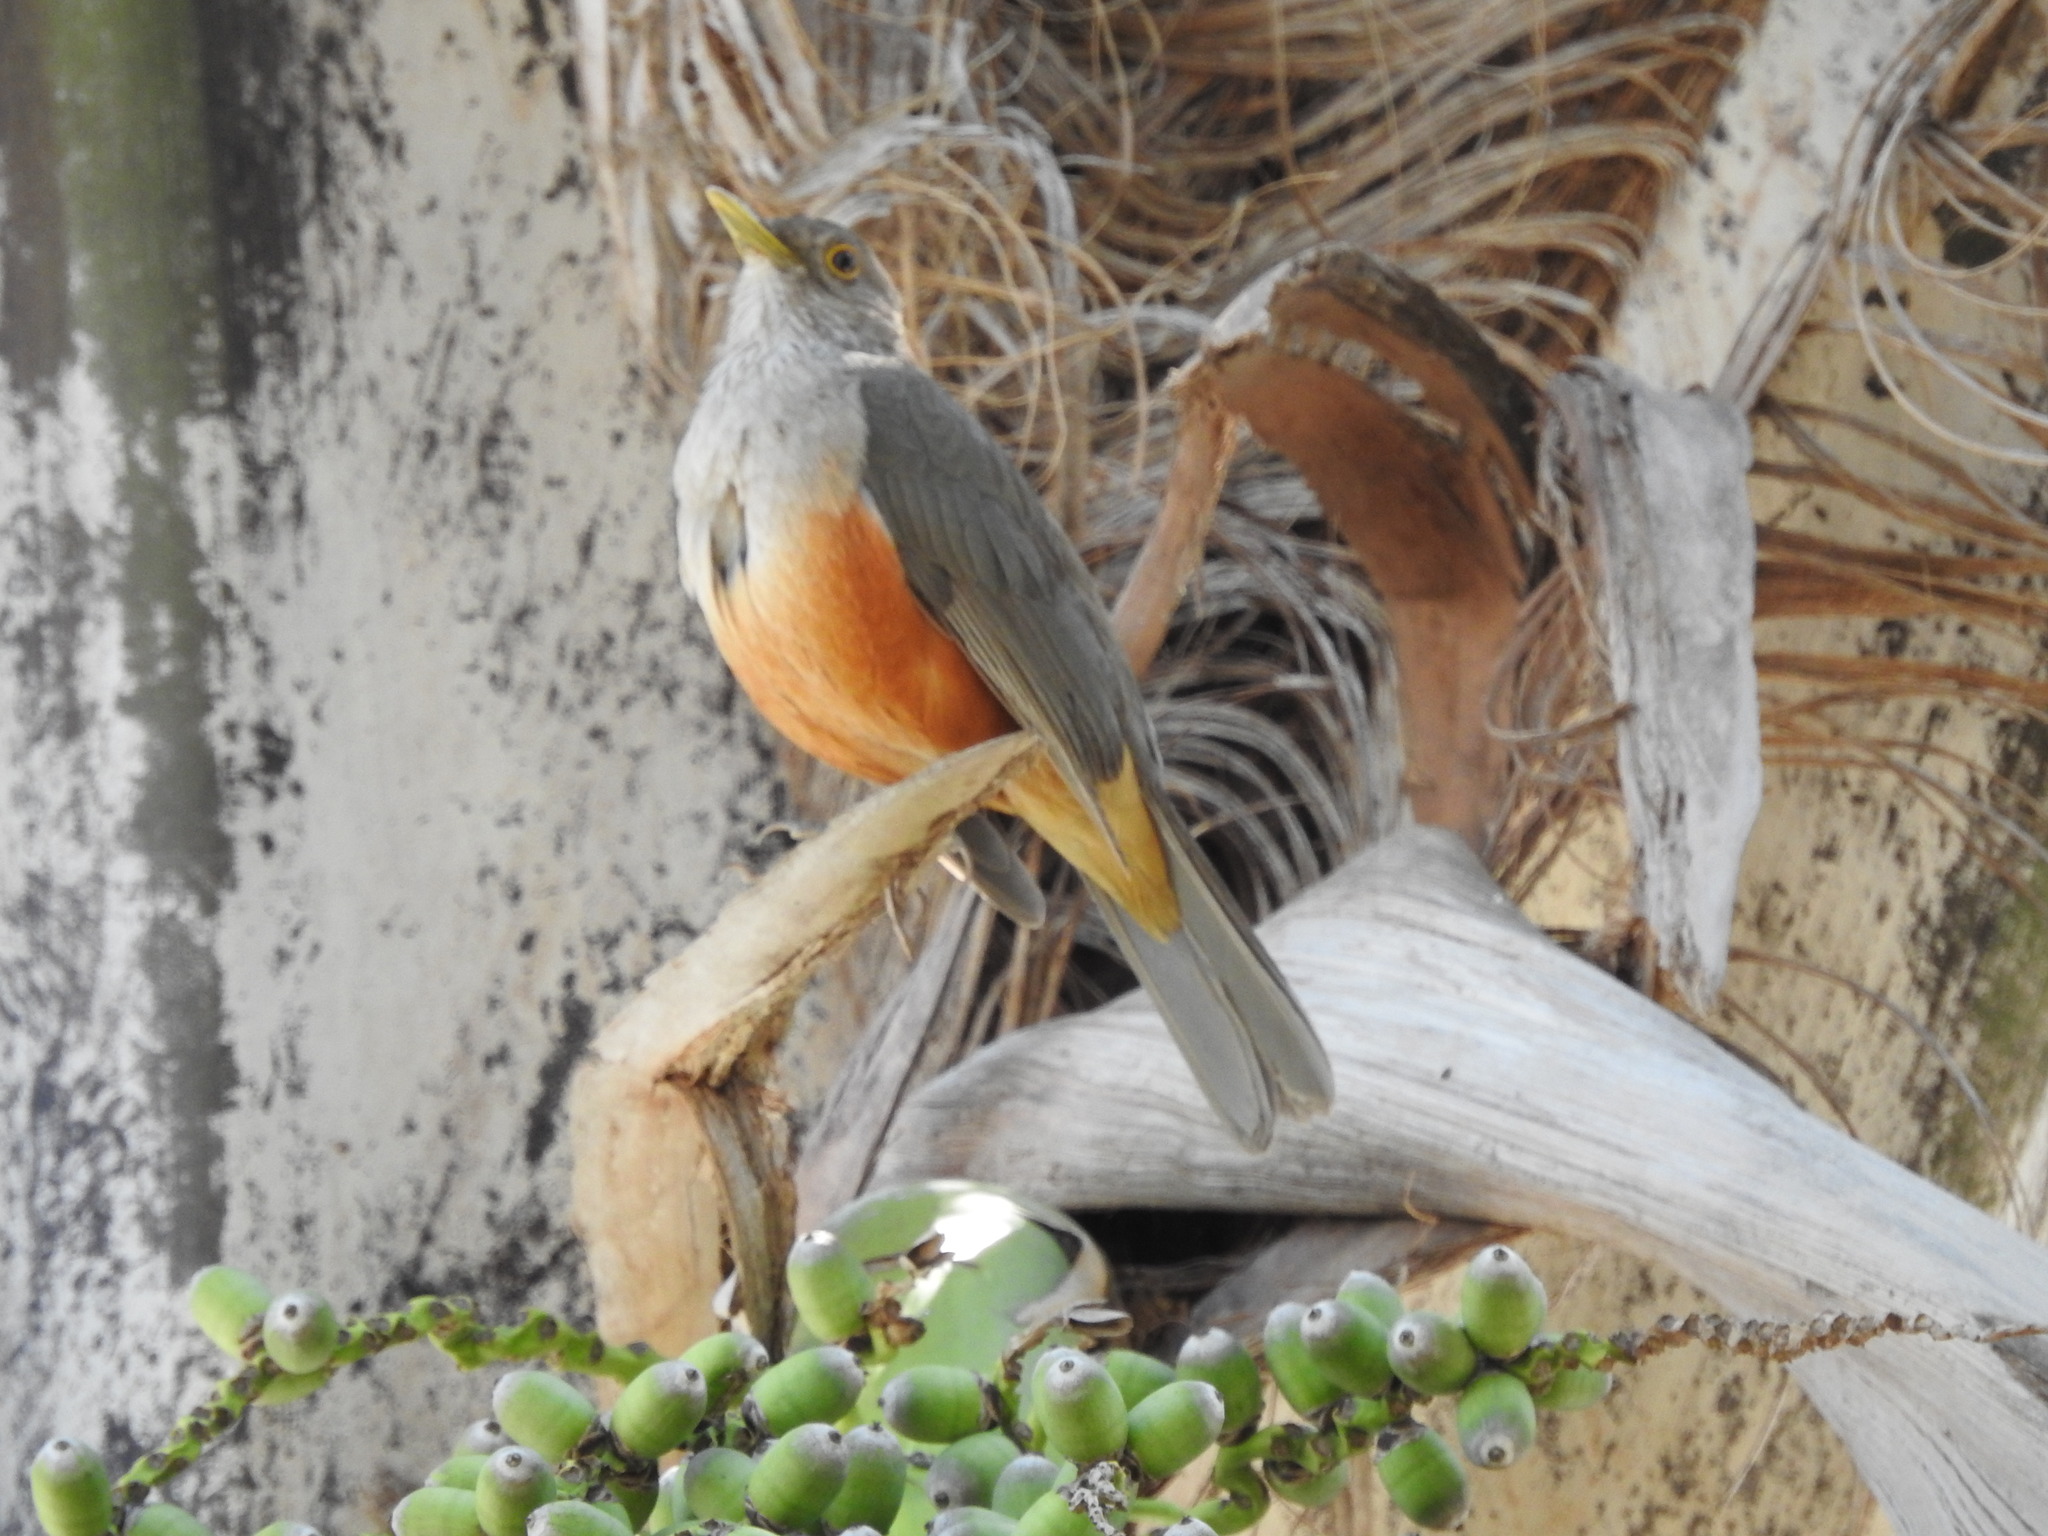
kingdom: Animalia
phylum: Chordata
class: Aves
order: Passeriformes
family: Turdidae
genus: Turdus
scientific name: Turdus rufiventris
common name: Rufous-bellied thrush
